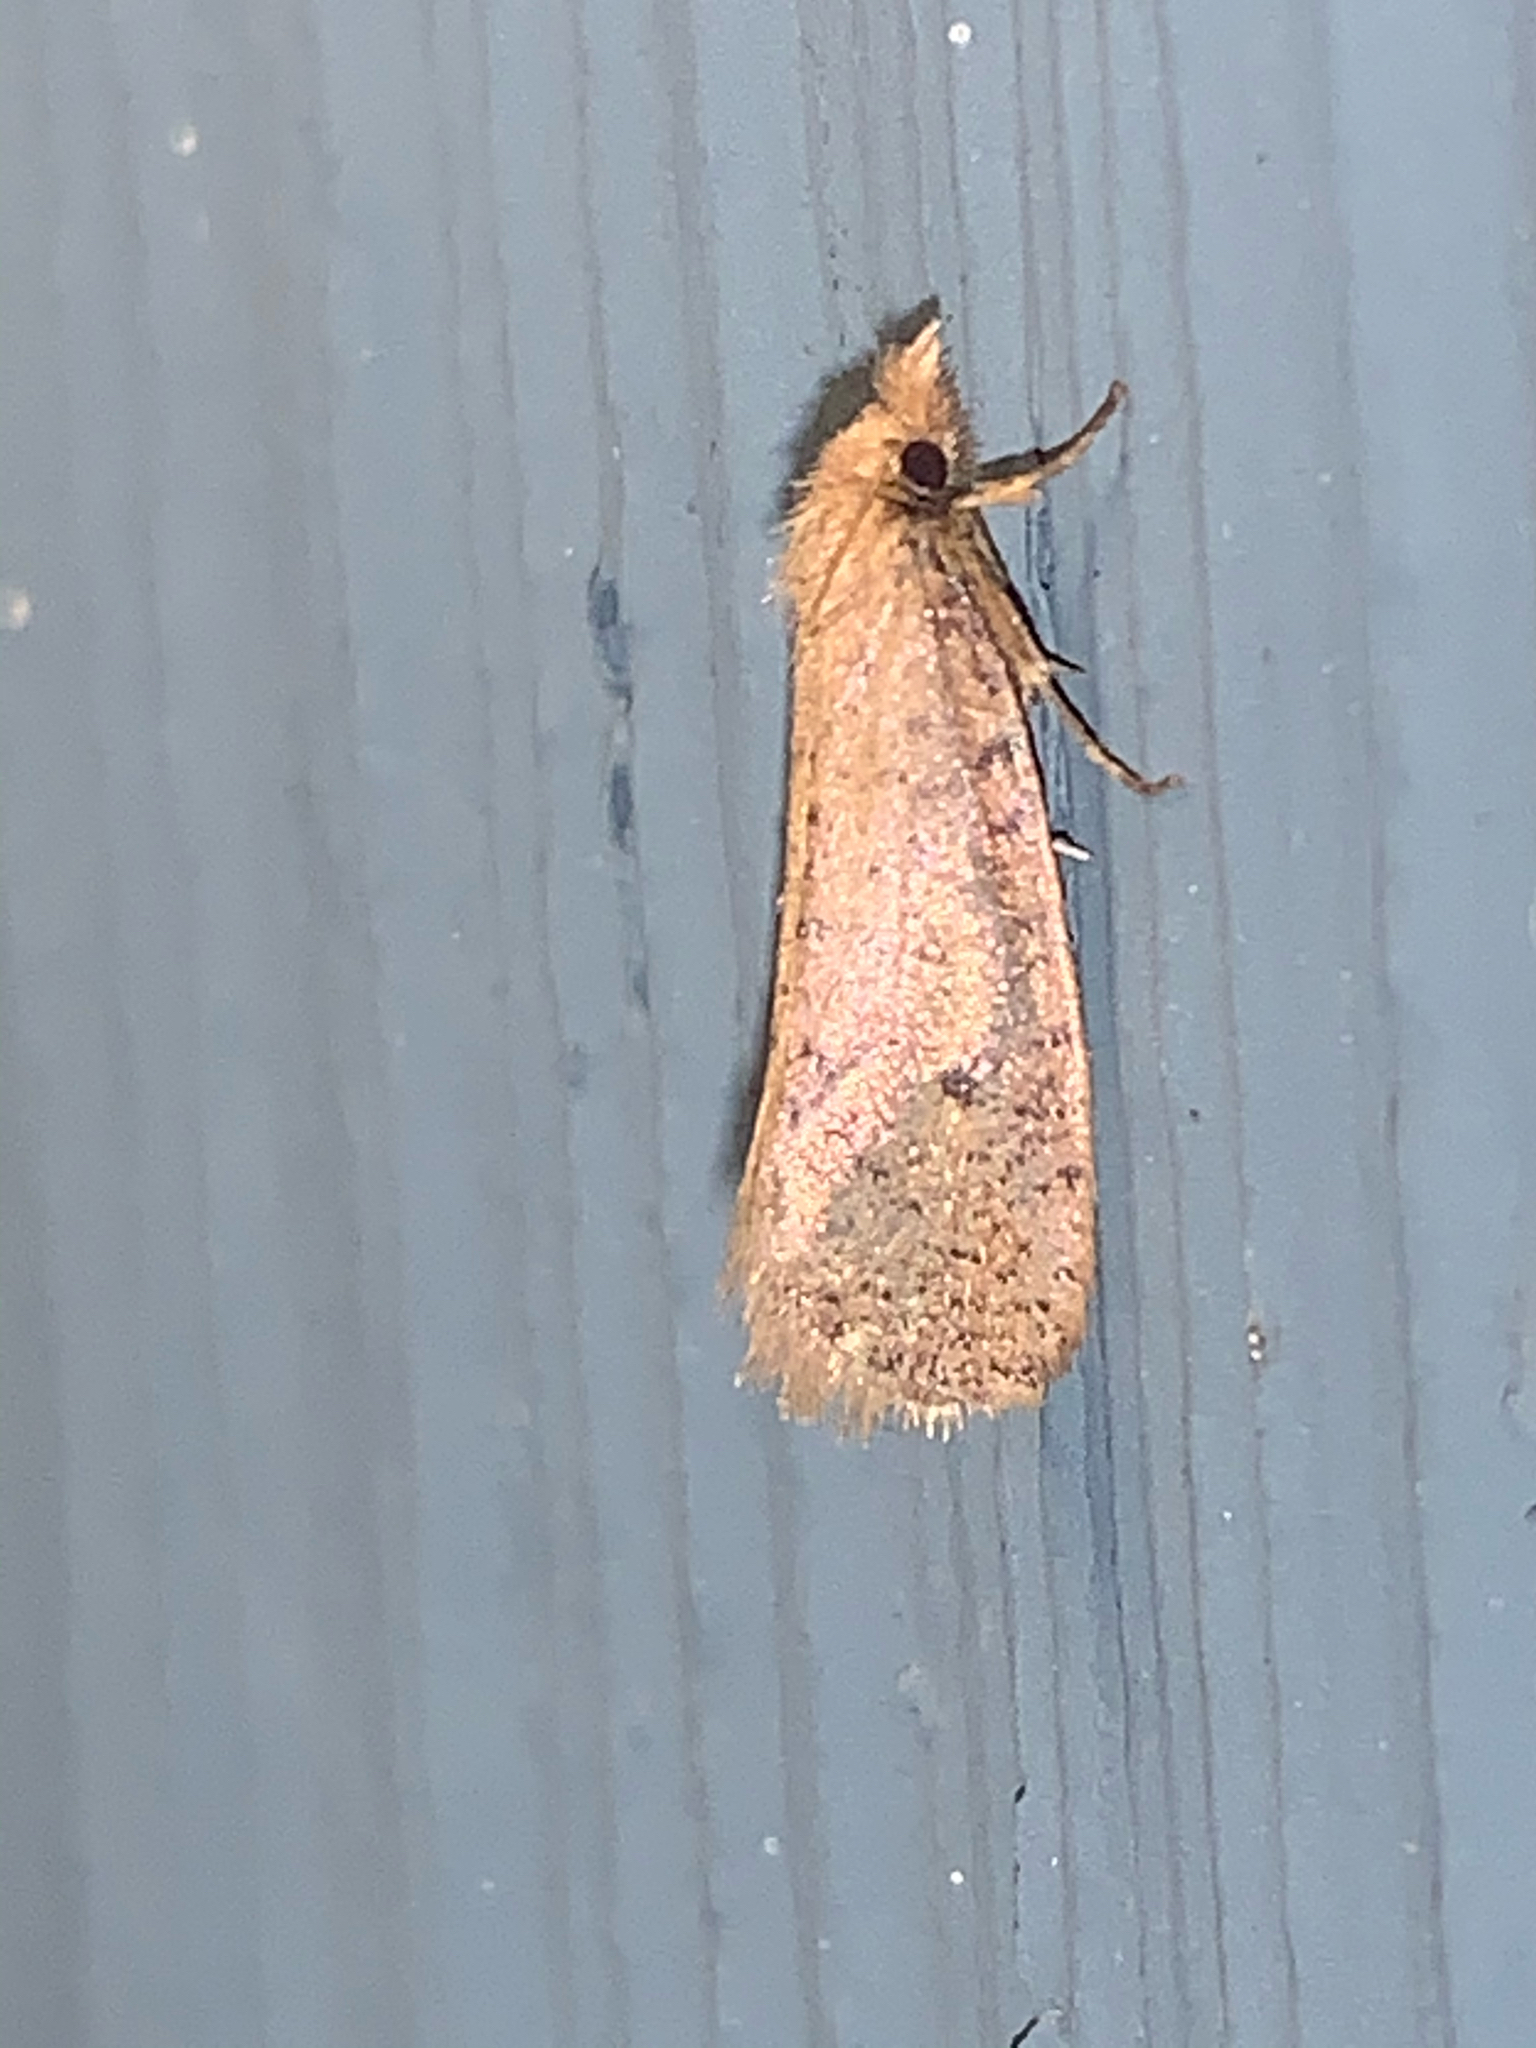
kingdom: Animalia
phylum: Arthropoda
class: Insecta
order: Lepidoptera
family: Tineidae
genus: Acrolophus
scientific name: Acrolophus propinqua
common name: Walsingham's grass tubeworm moth
